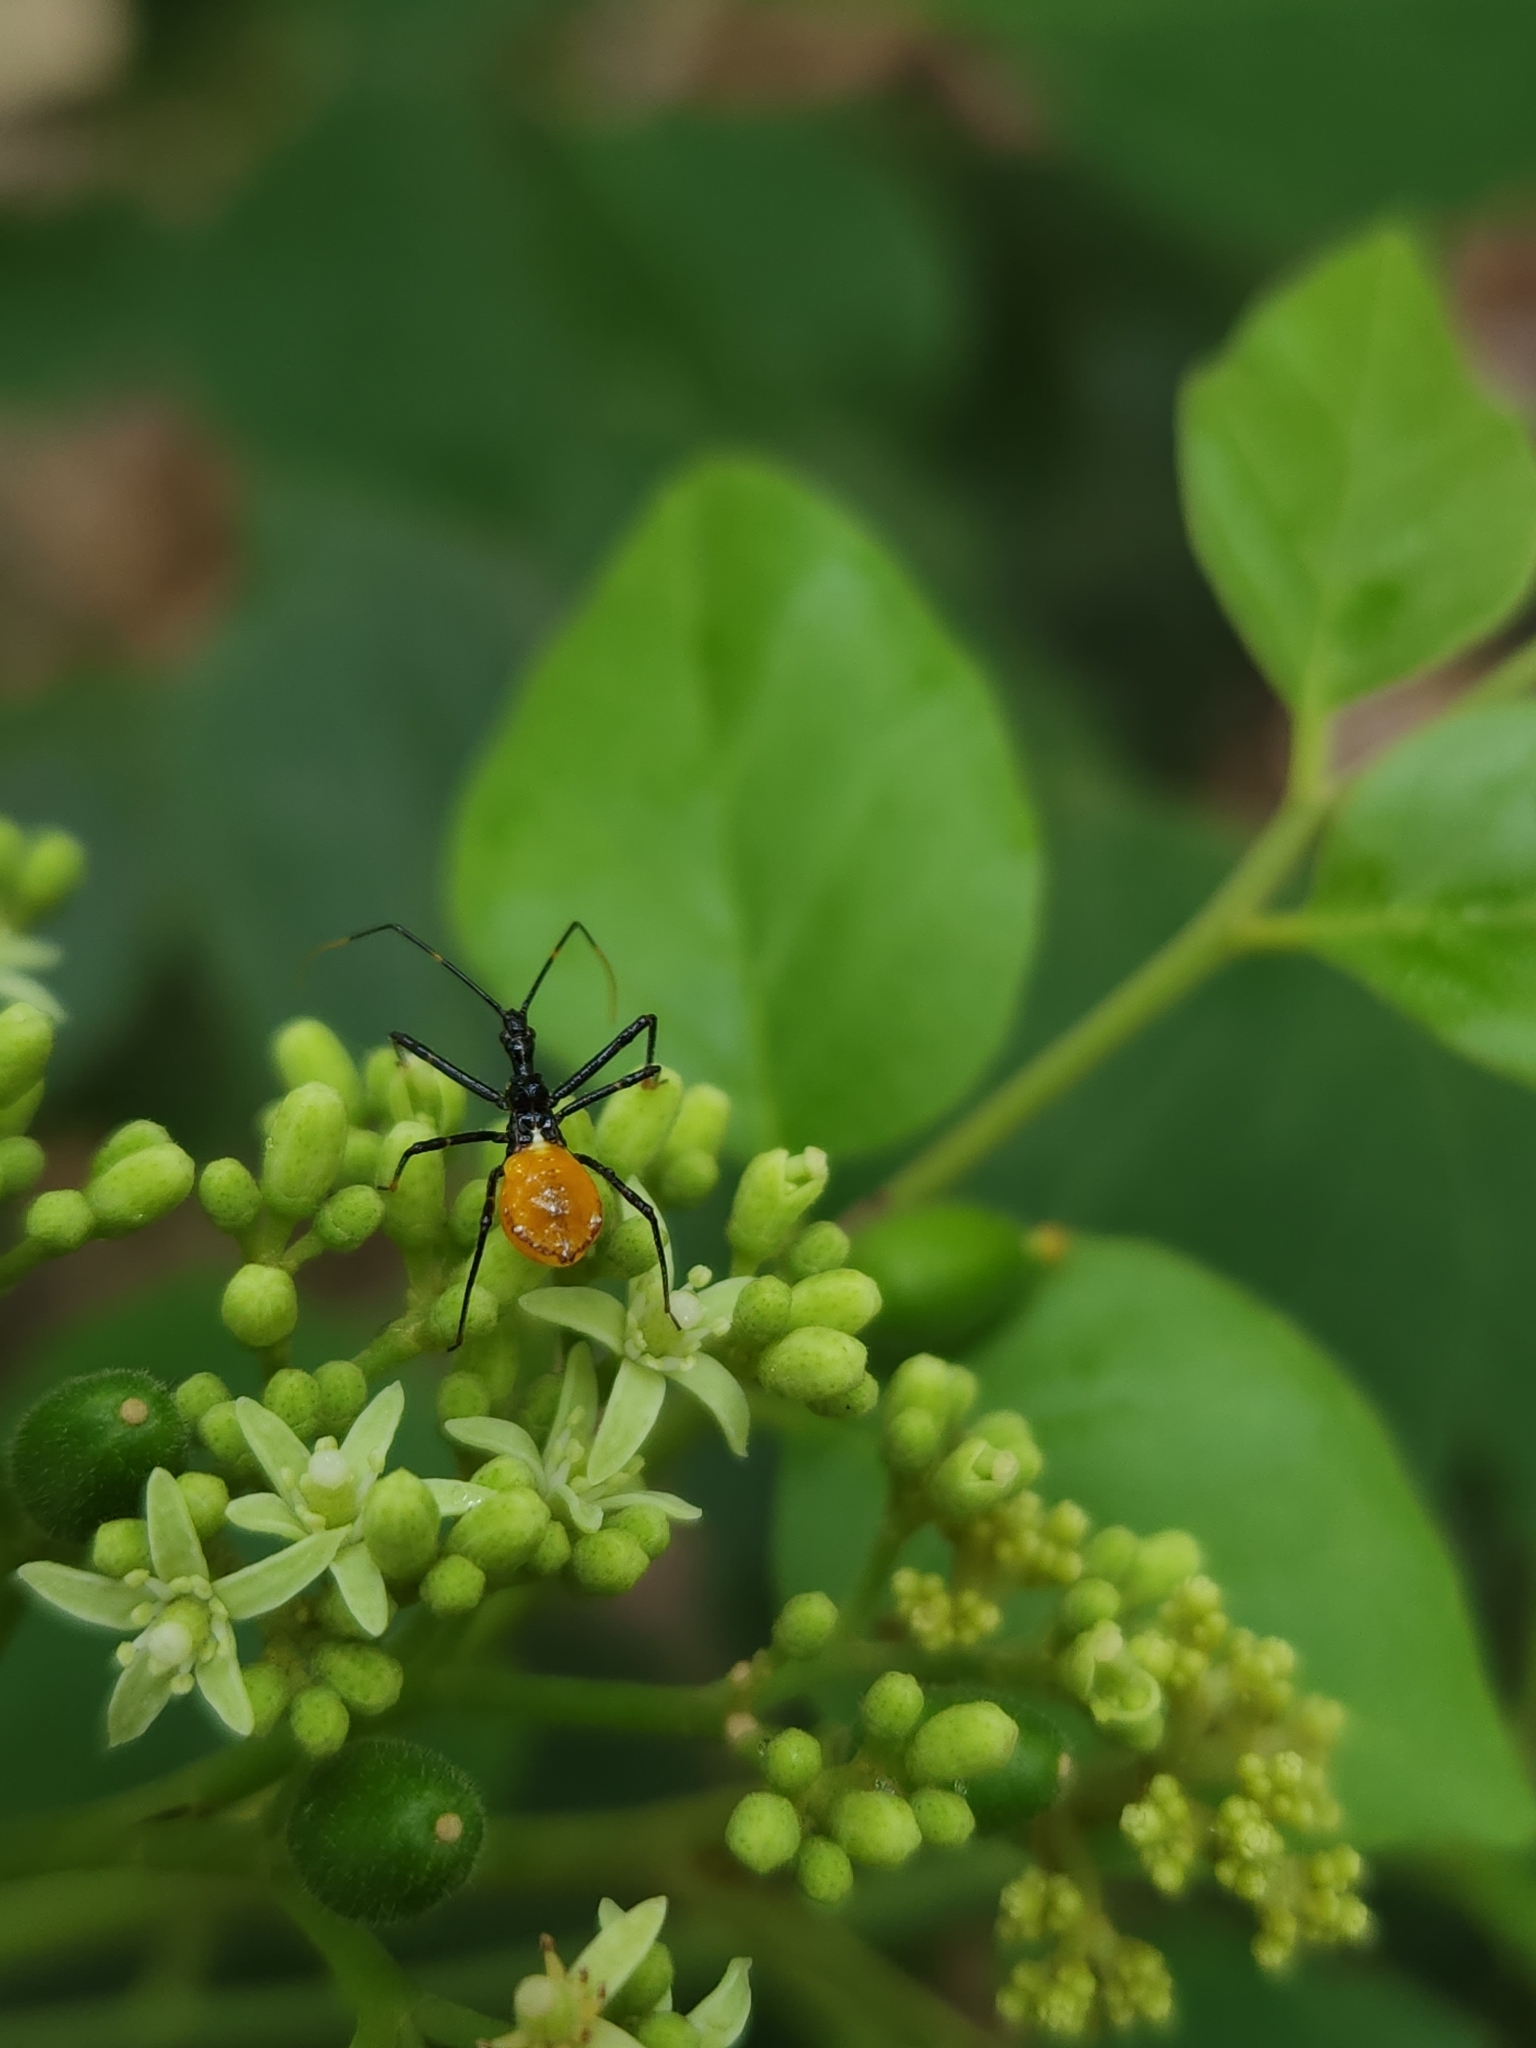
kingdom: Animalia
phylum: Arthropoda
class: Insecta
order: Hemiptera
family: Reduviidae
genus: Pristhesancus
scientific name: Pristhesancus plagipennis
